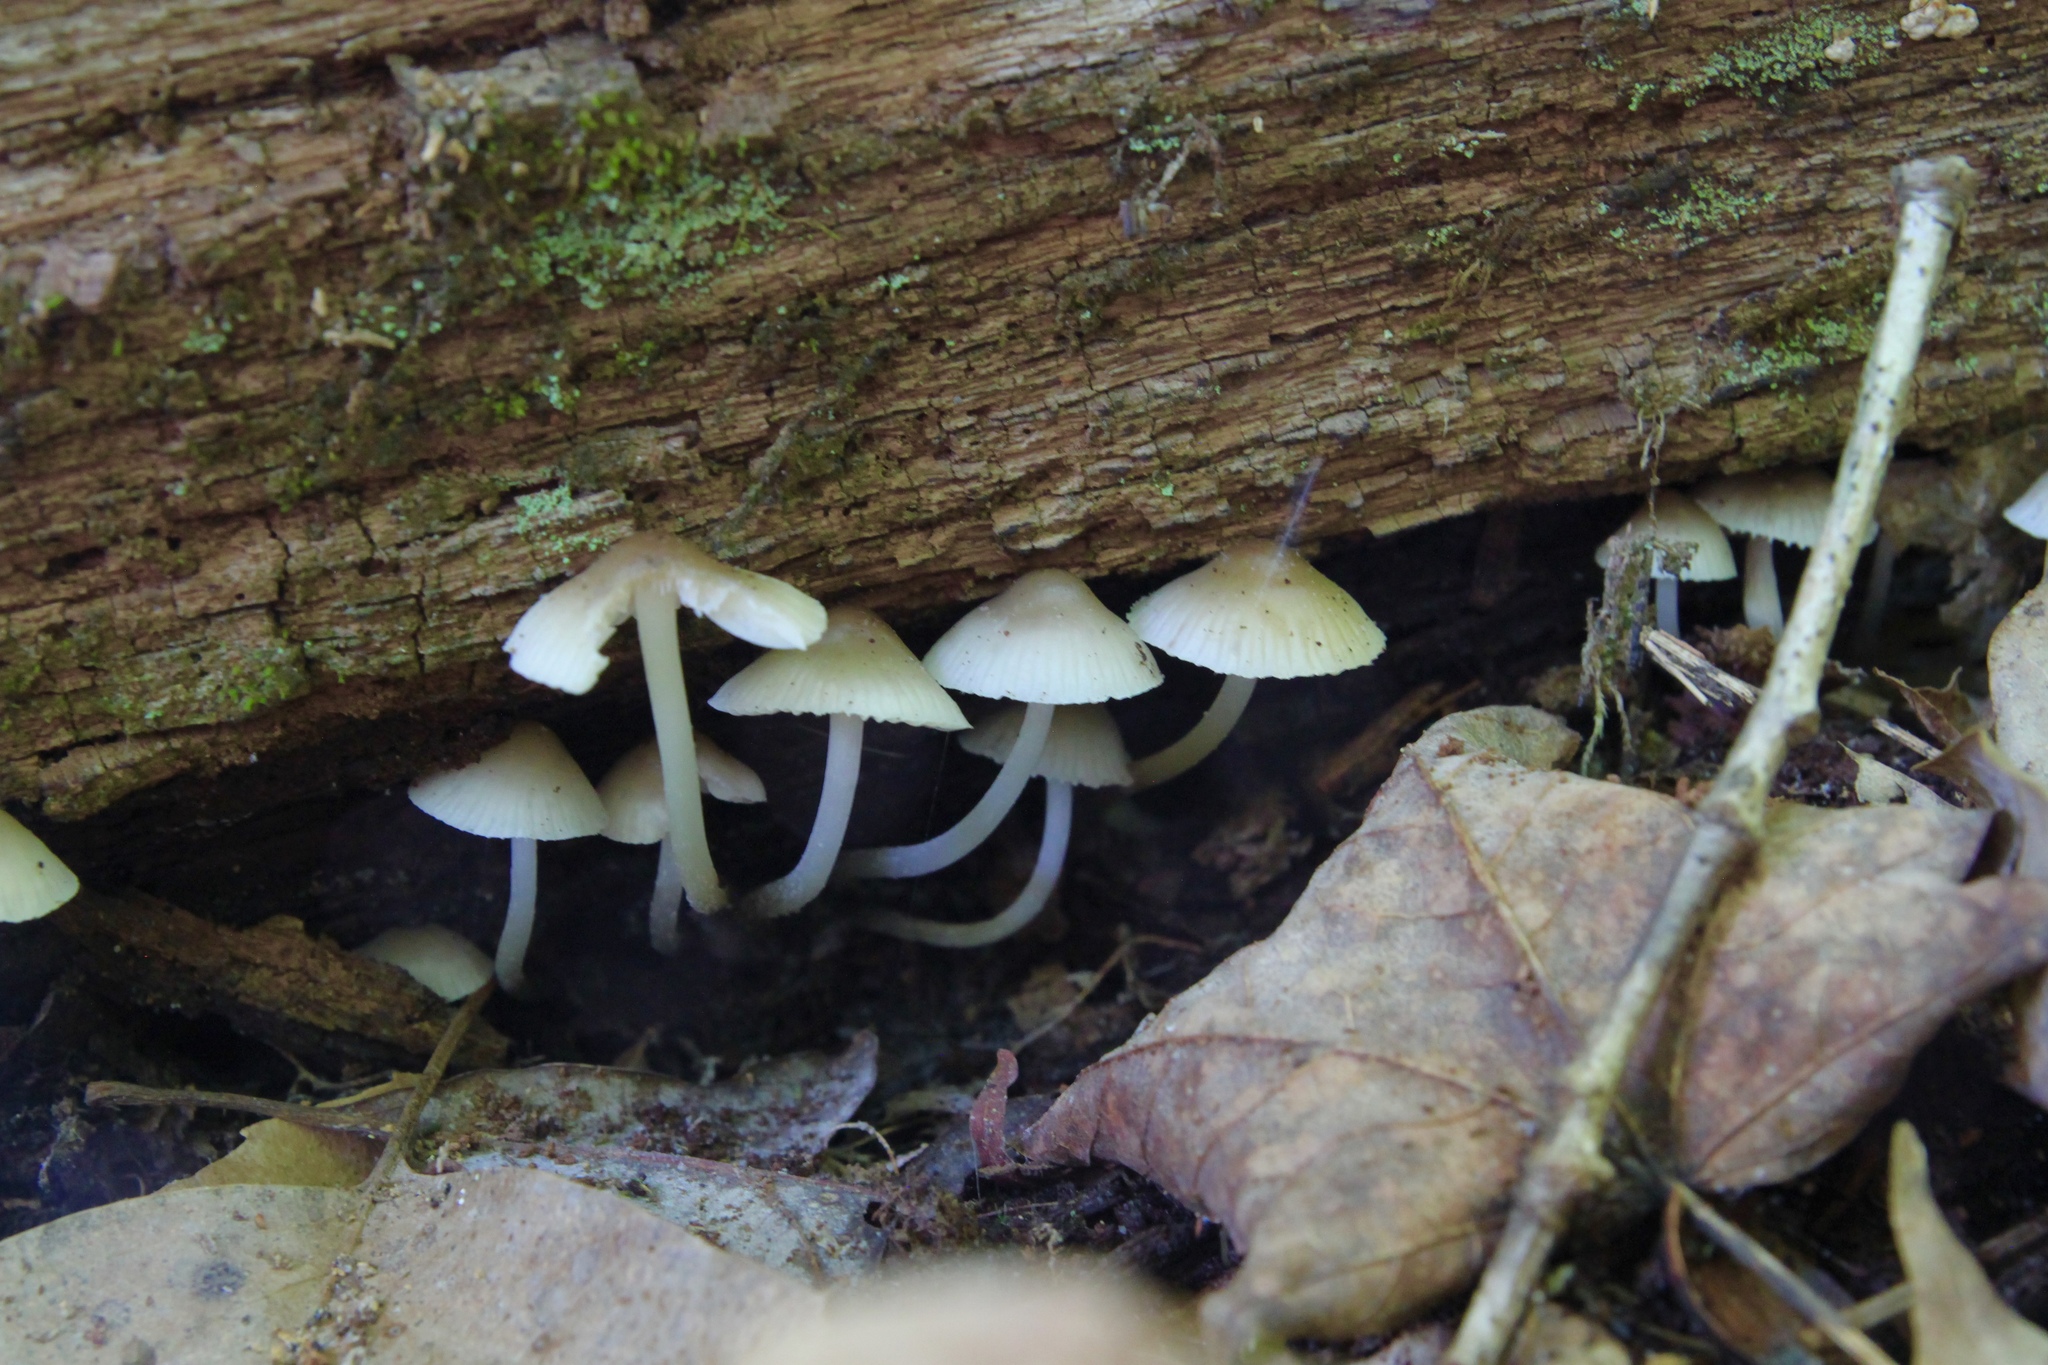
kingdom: Fungi
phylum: Basidiomycota
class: Agaricomycetes
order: Agaricales
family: Mycenaceae
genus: Mycena
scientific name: Mycena galericulata
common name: Bonnet mycena
